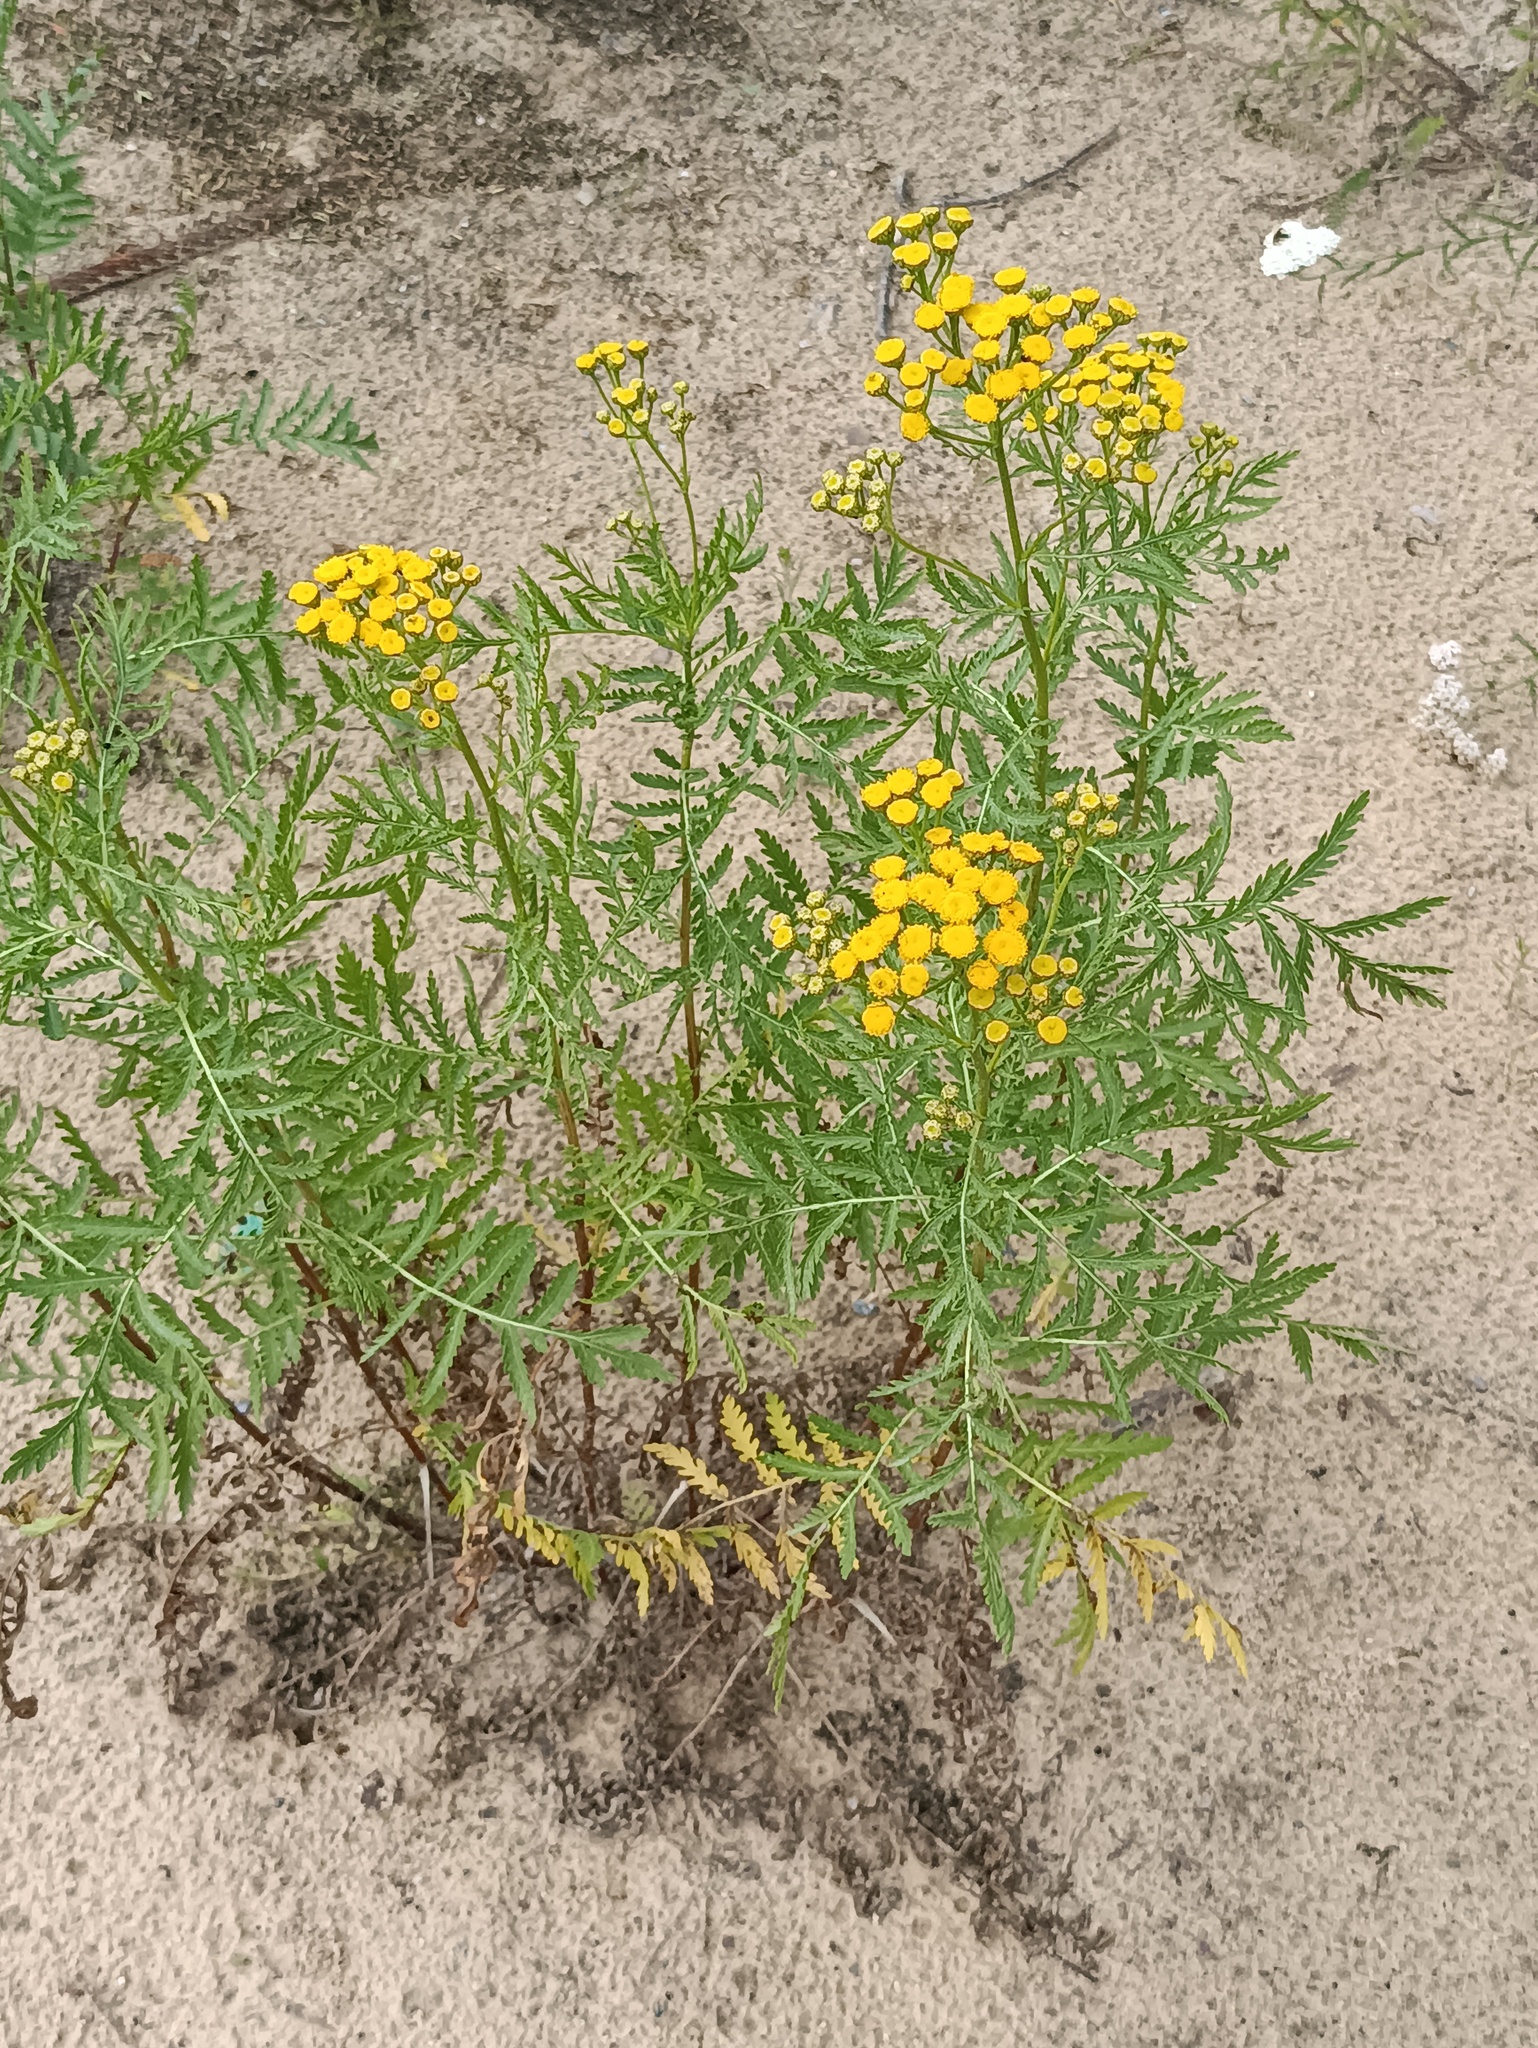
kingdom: Plantae
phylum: Tracheophyta
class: Magnoliopsida
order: Asterales
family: Asteraceae
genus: Tanacetum
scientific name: Tanacetum vulgare
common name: Common tansy
